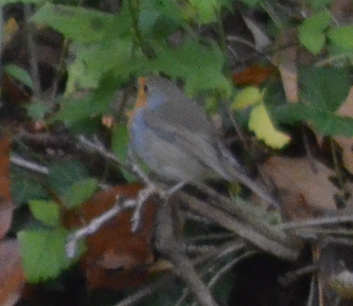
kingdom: Animalia
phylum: Chordata
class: Aves
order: Passeriformes
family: Muscicapidae
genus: Erithacus
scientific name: Erithacus rubecula
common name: European robin
